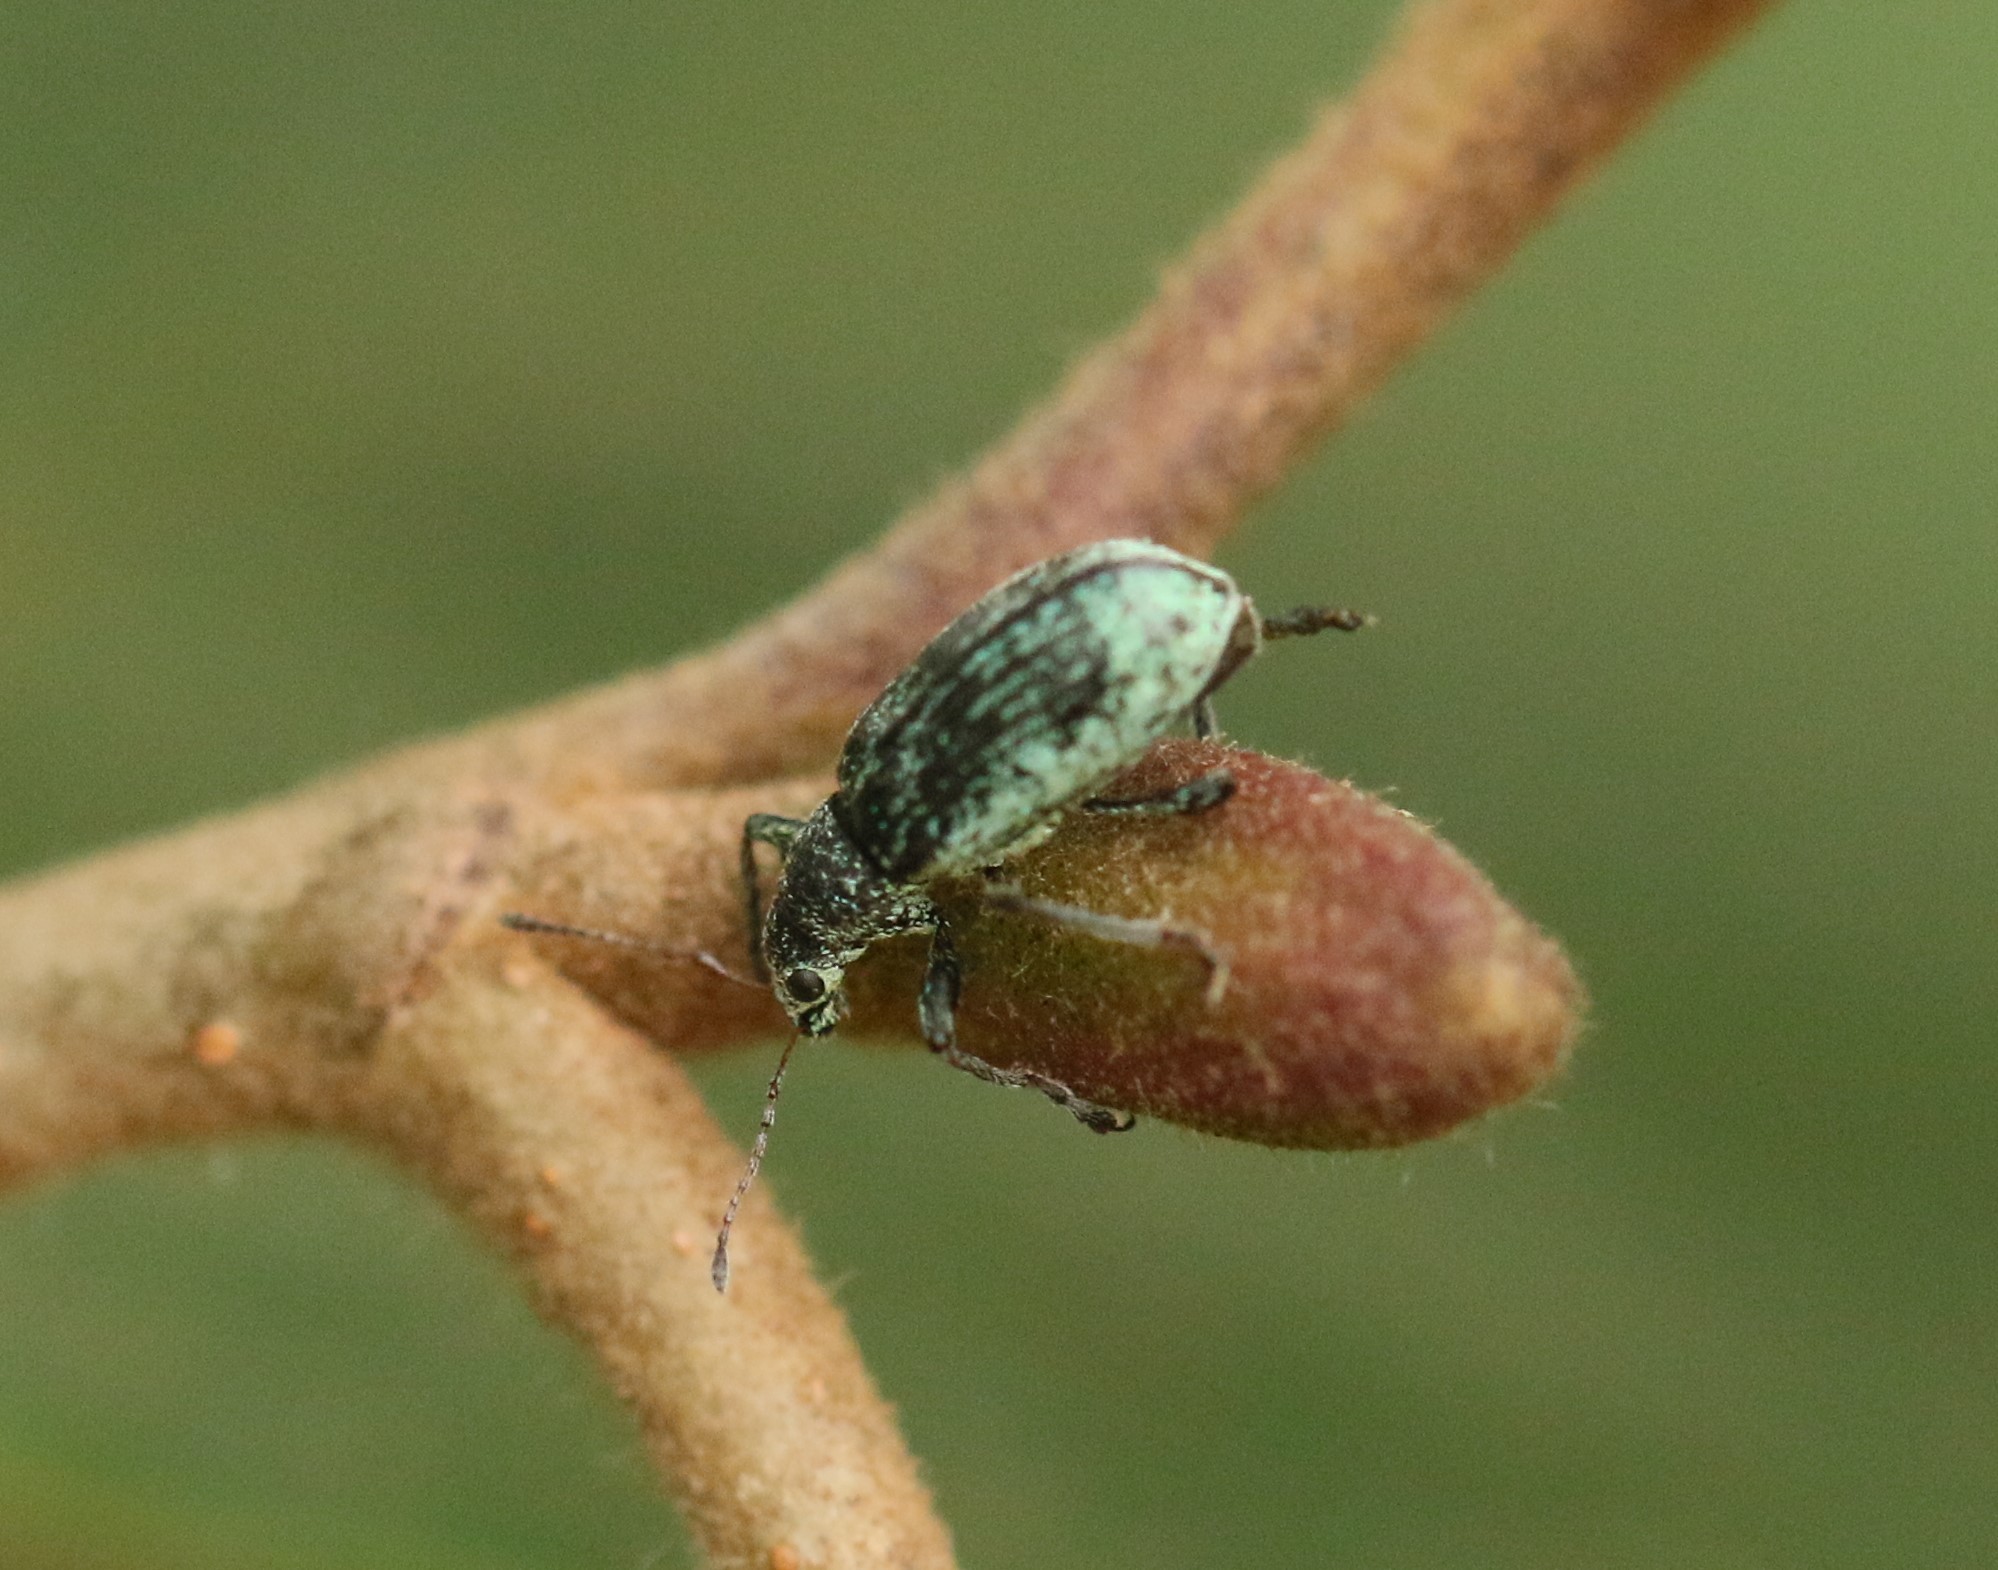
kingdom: Animalia
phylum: Arthropoda
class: Insecta
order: Coleoptera
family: Curculionidae
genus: Polydrusus
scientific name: Polydrusus cervinus
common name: Weevil
